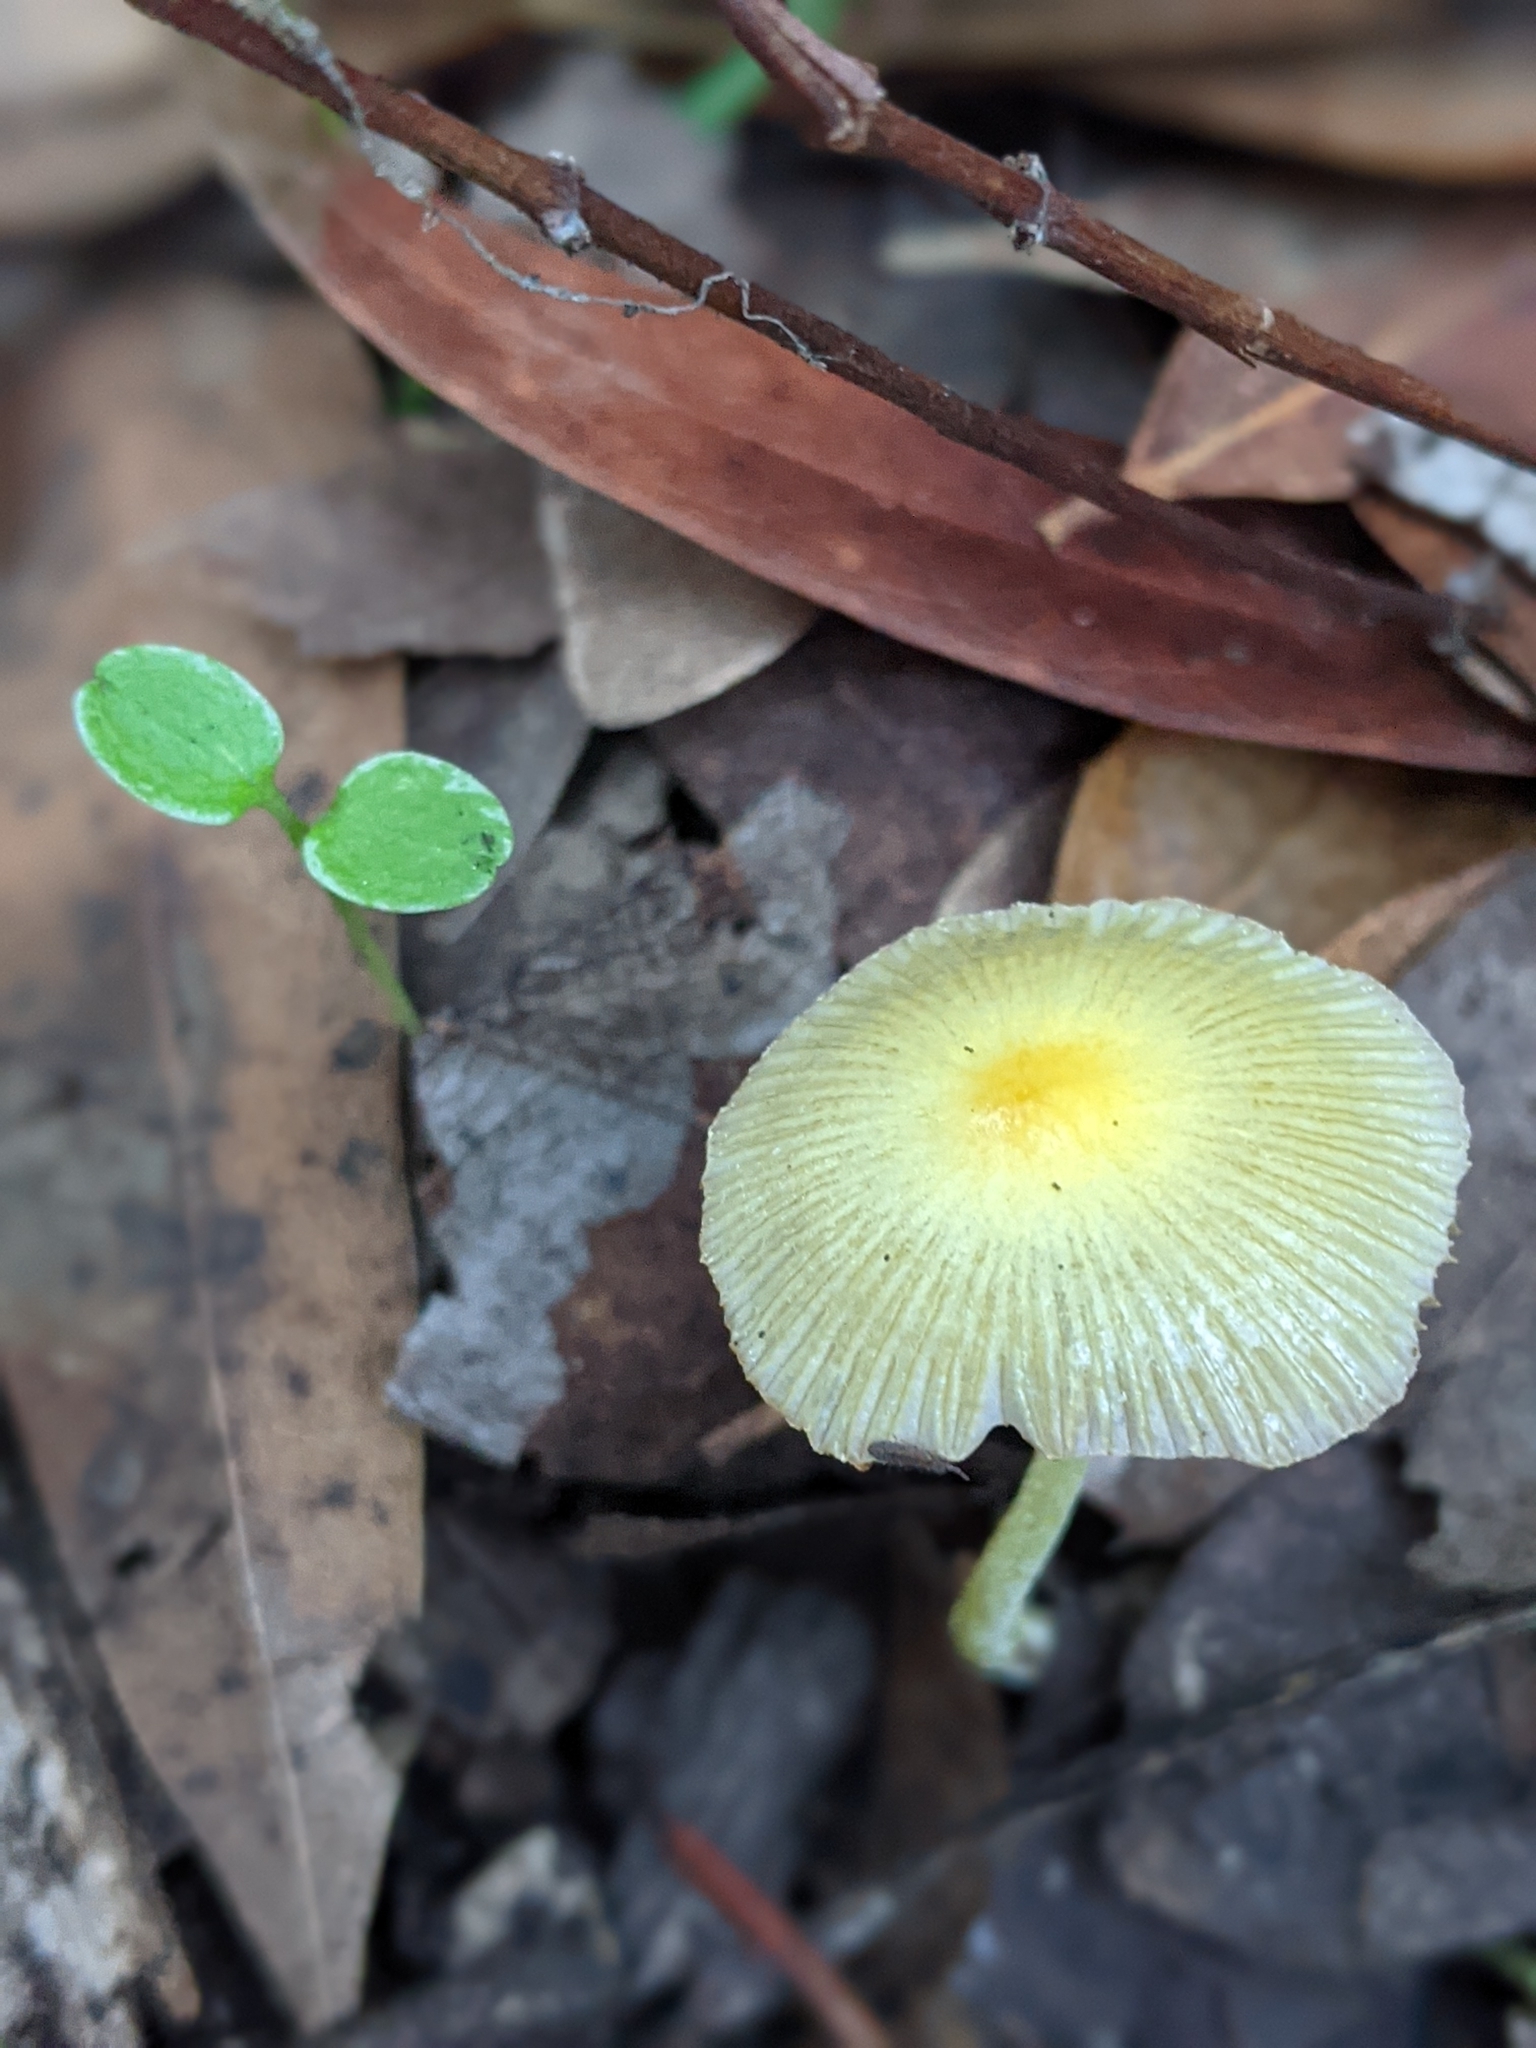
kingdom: Fungi
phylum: Basidiomycota
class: Agaricomycetes
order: Agaricales
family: Bolbitiaceae
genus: Bolbitius
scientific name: Bolbitius titubans
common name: Yellow fieldcap
